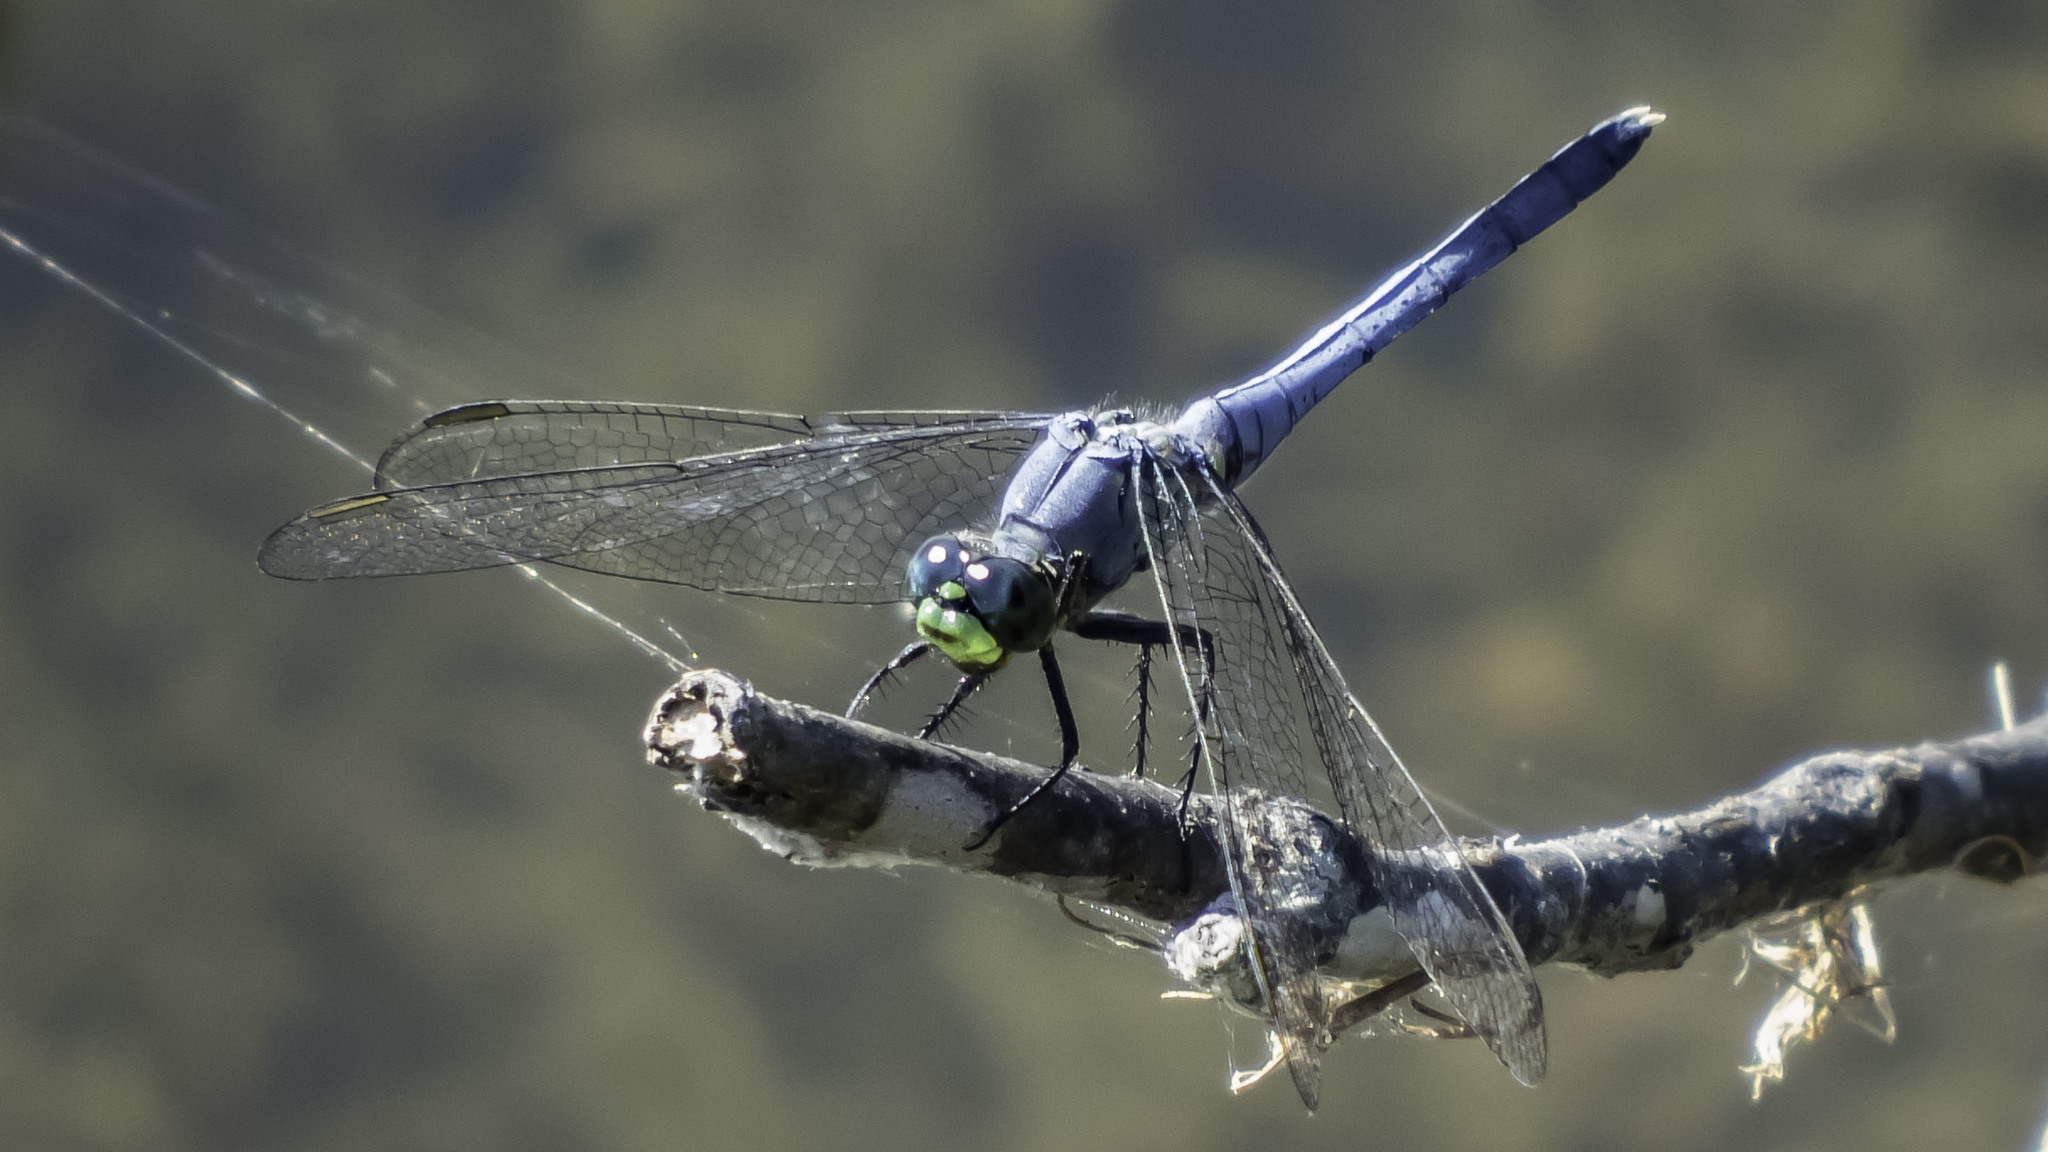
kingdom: Animalia
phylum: Arthropoda
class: Insecta
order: Odonata
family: Libellulidae
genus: Erythemis
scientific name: Erythemis simplicicollis
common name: Eastern pondhawk
